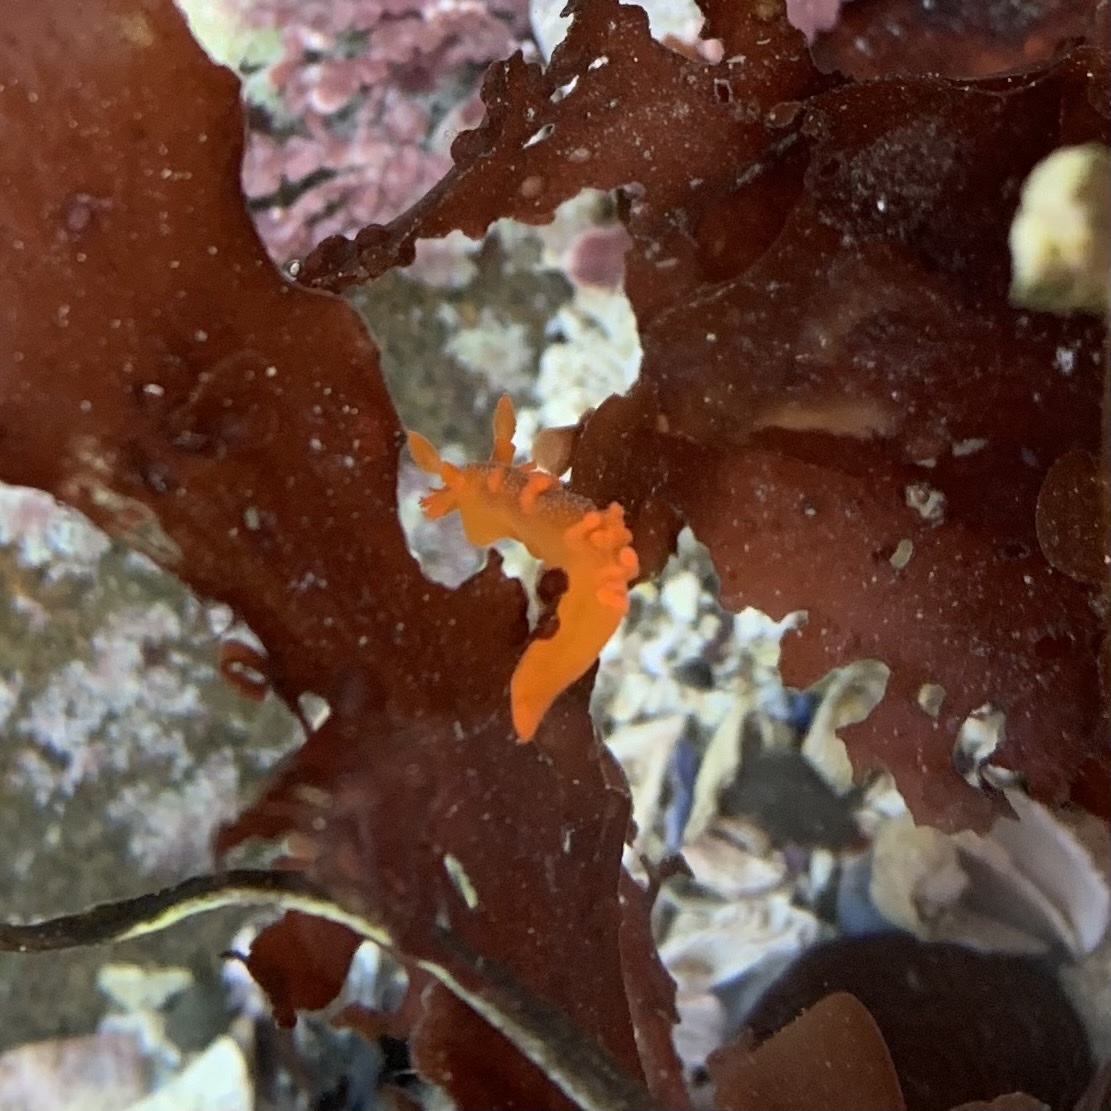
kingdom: Animalia
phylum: Mollusca
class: Gastropoda
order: Nudibranchia
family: Polyceridae
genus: Triopha
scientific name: Triopha maculata
